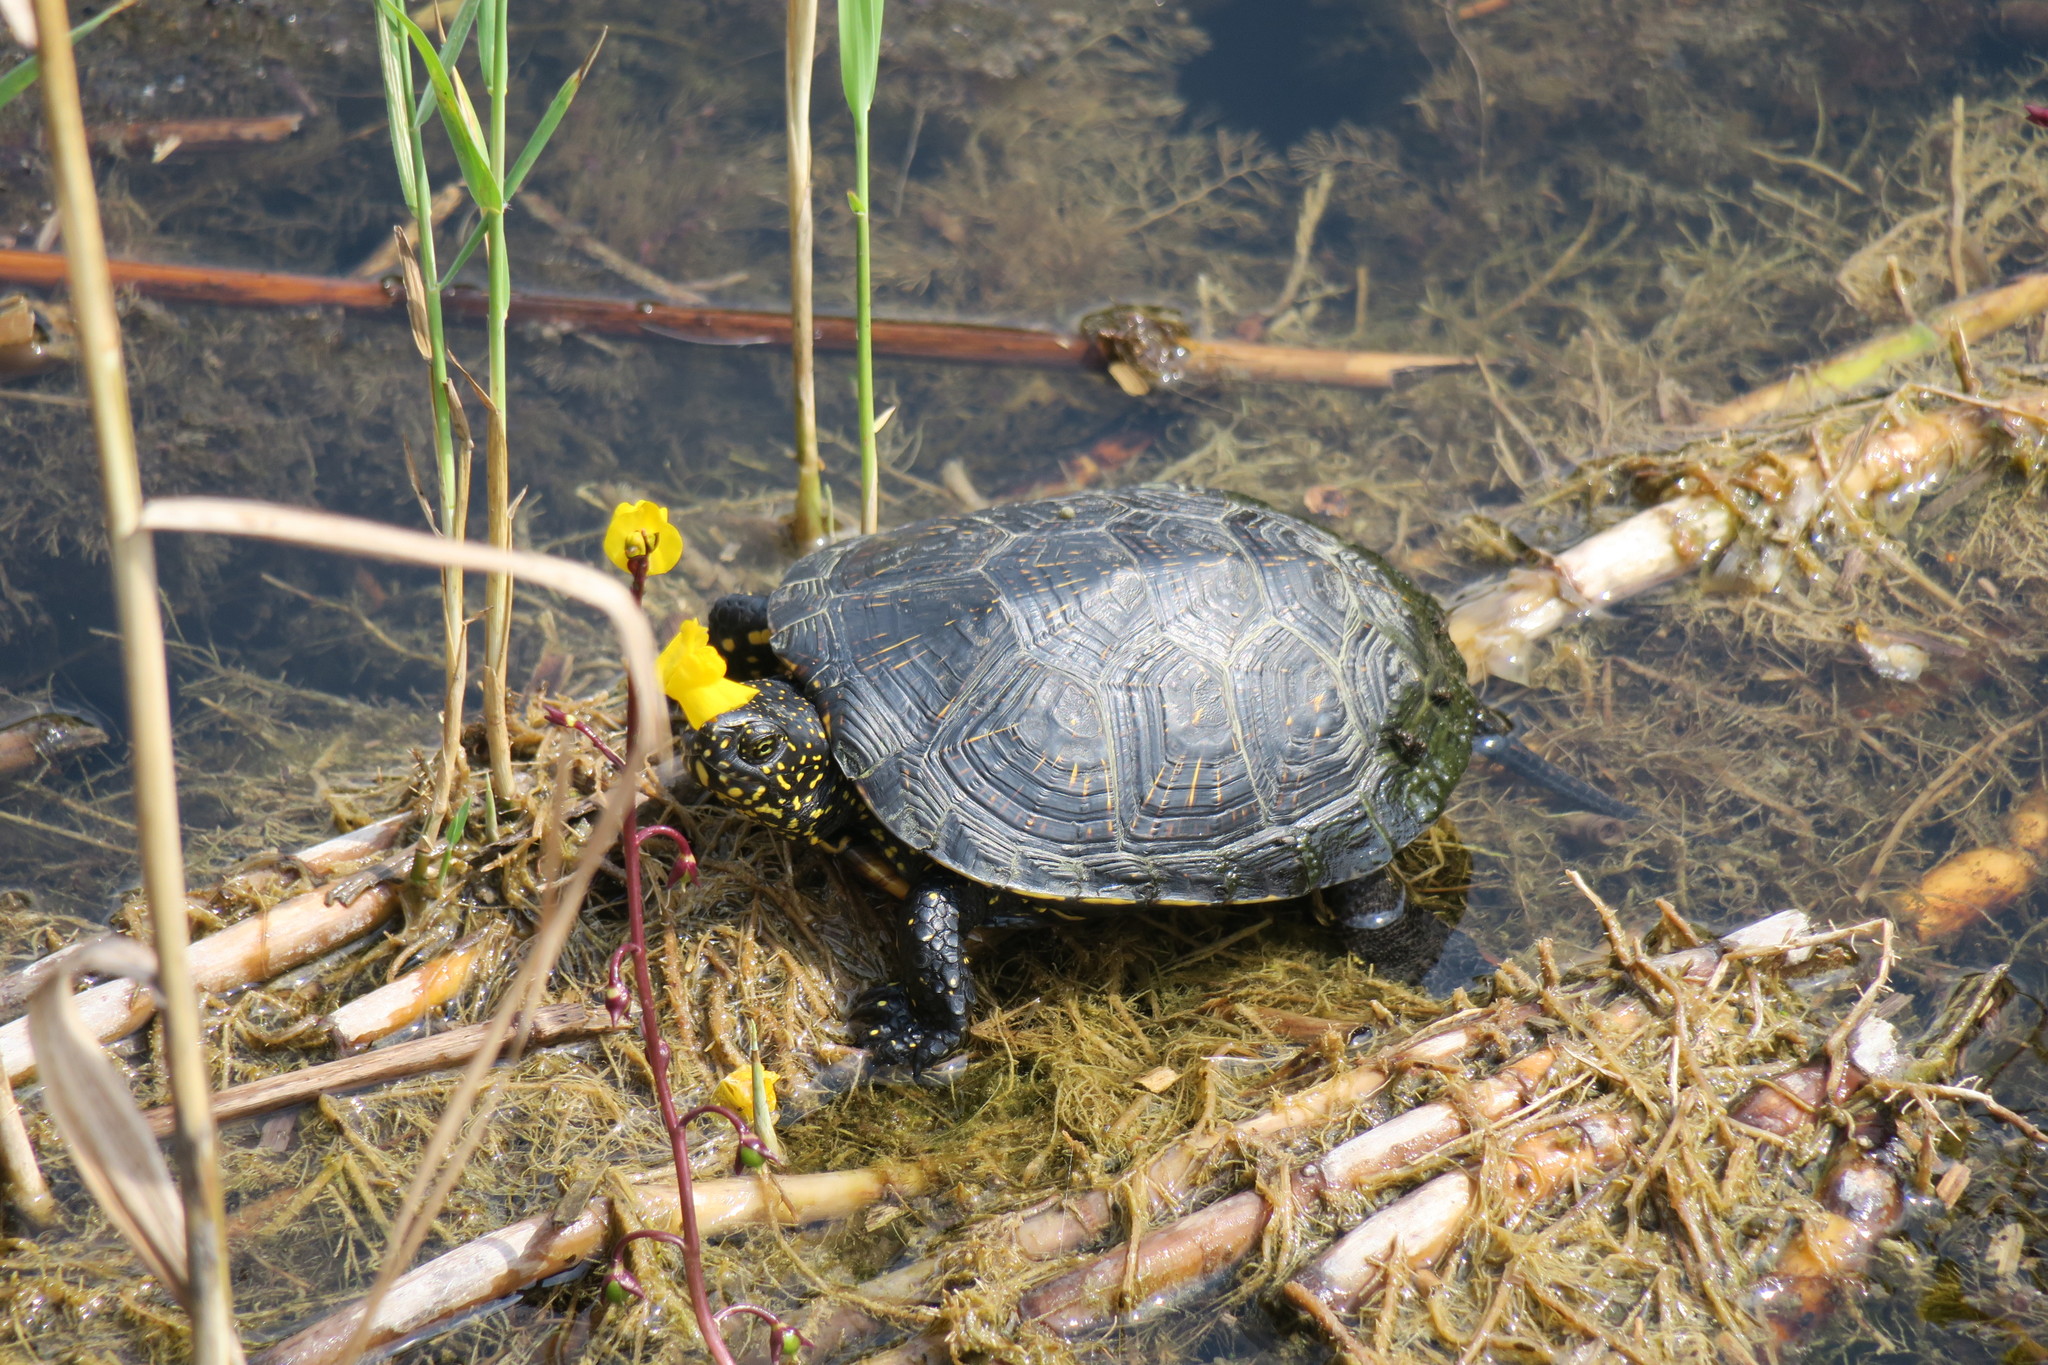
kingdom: Animalia
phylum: Chordata
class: Testudines
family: Emydidae
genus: Emys
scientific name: Emys orbicularis
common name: European pond turtle
